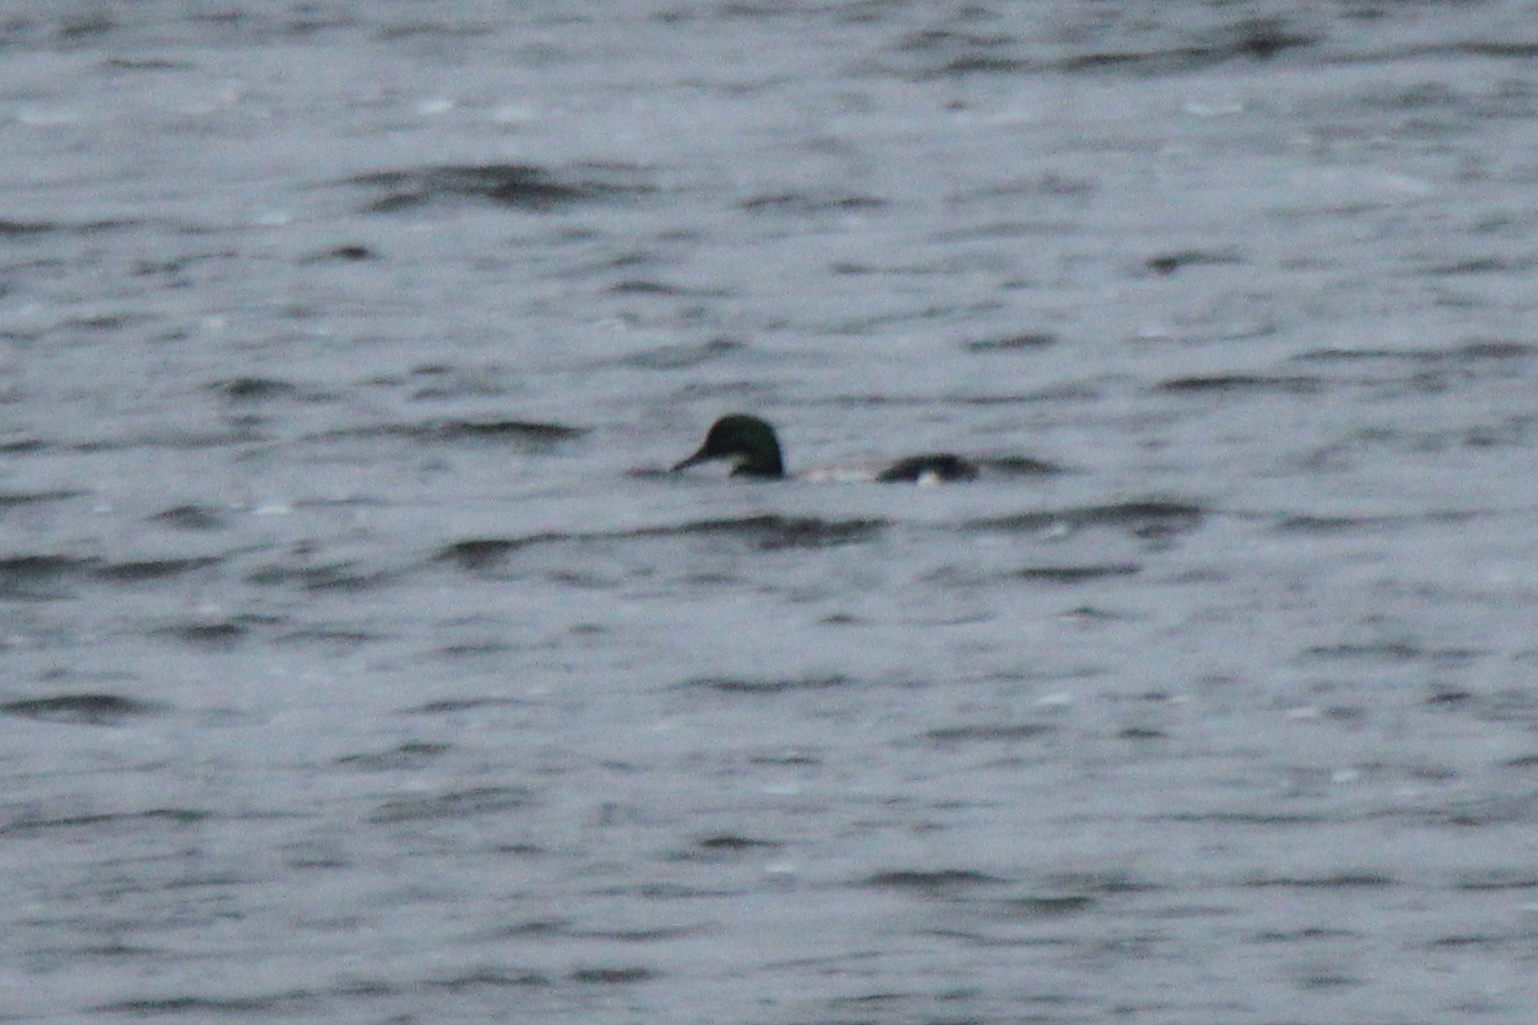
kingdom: Animalia
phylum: Chordata
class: Aves
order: Anseriformes
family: Anatidae
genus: Mareca
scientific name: Mareca falcata
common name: Falcated duck
